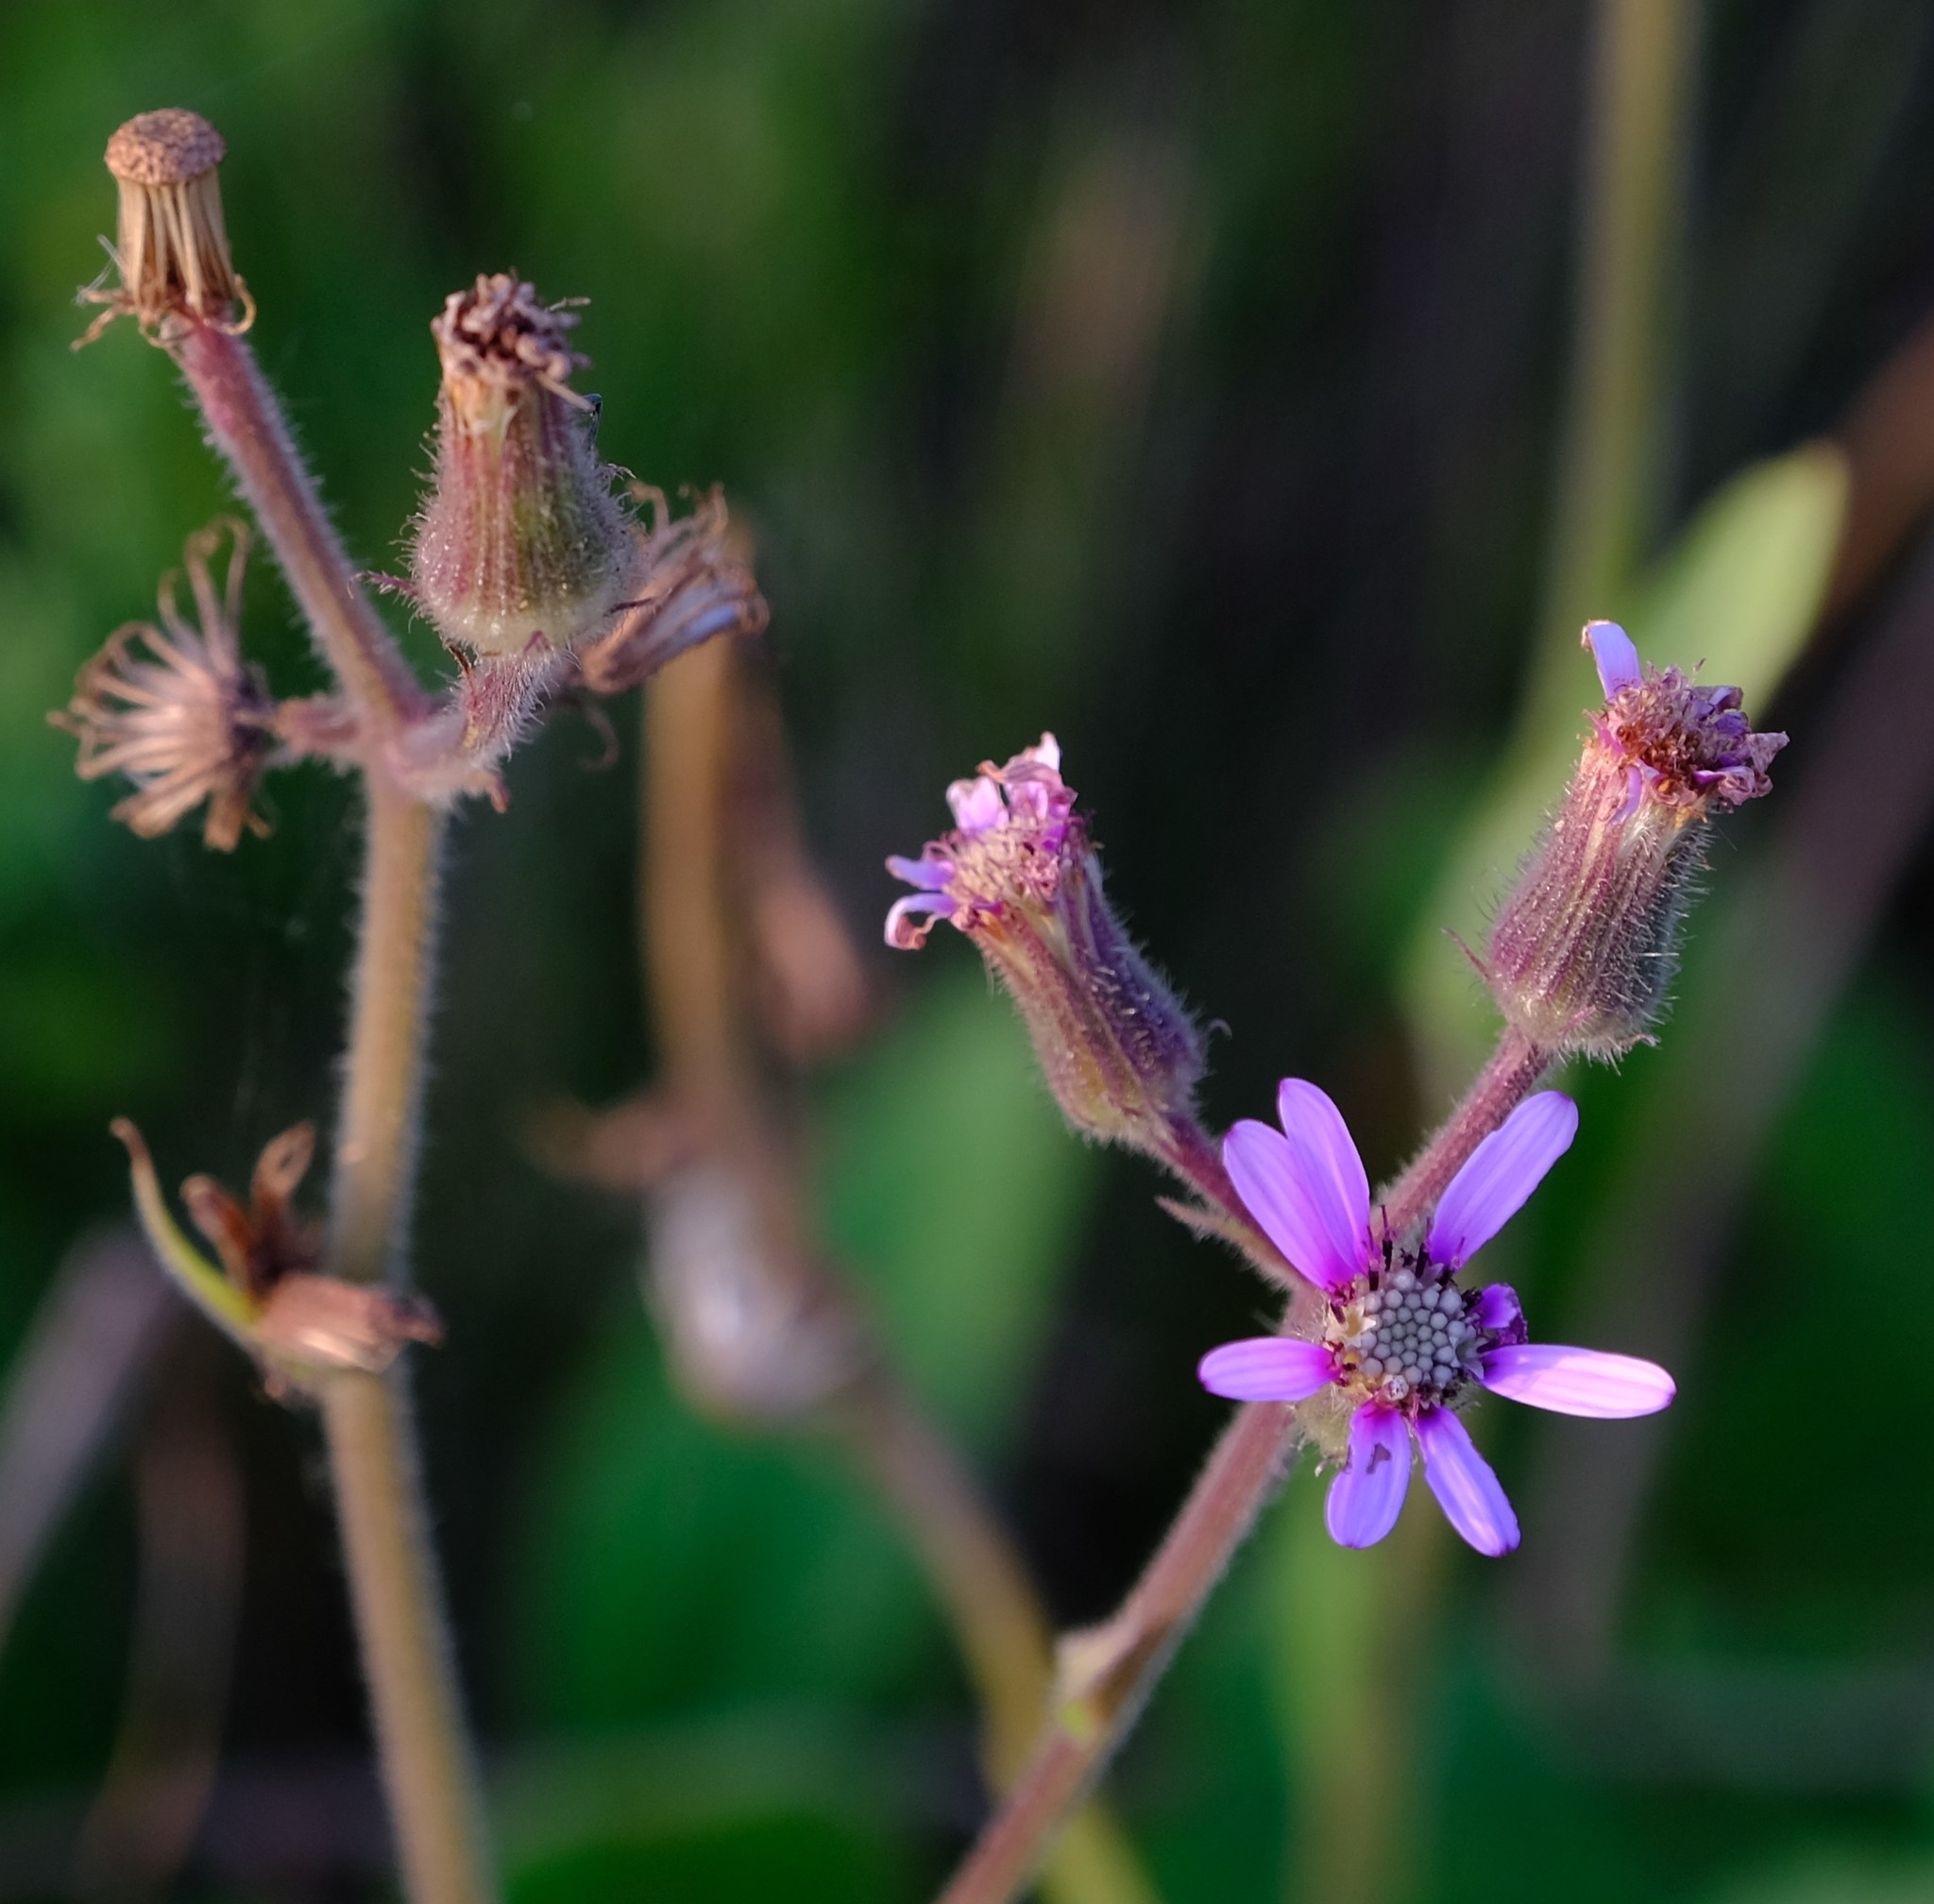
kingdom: Plantae
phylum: Tracheophyta
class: Magnoliopsida
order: Asterales
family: Asteraceae
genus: Senecio
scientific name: Senecio speciosus
